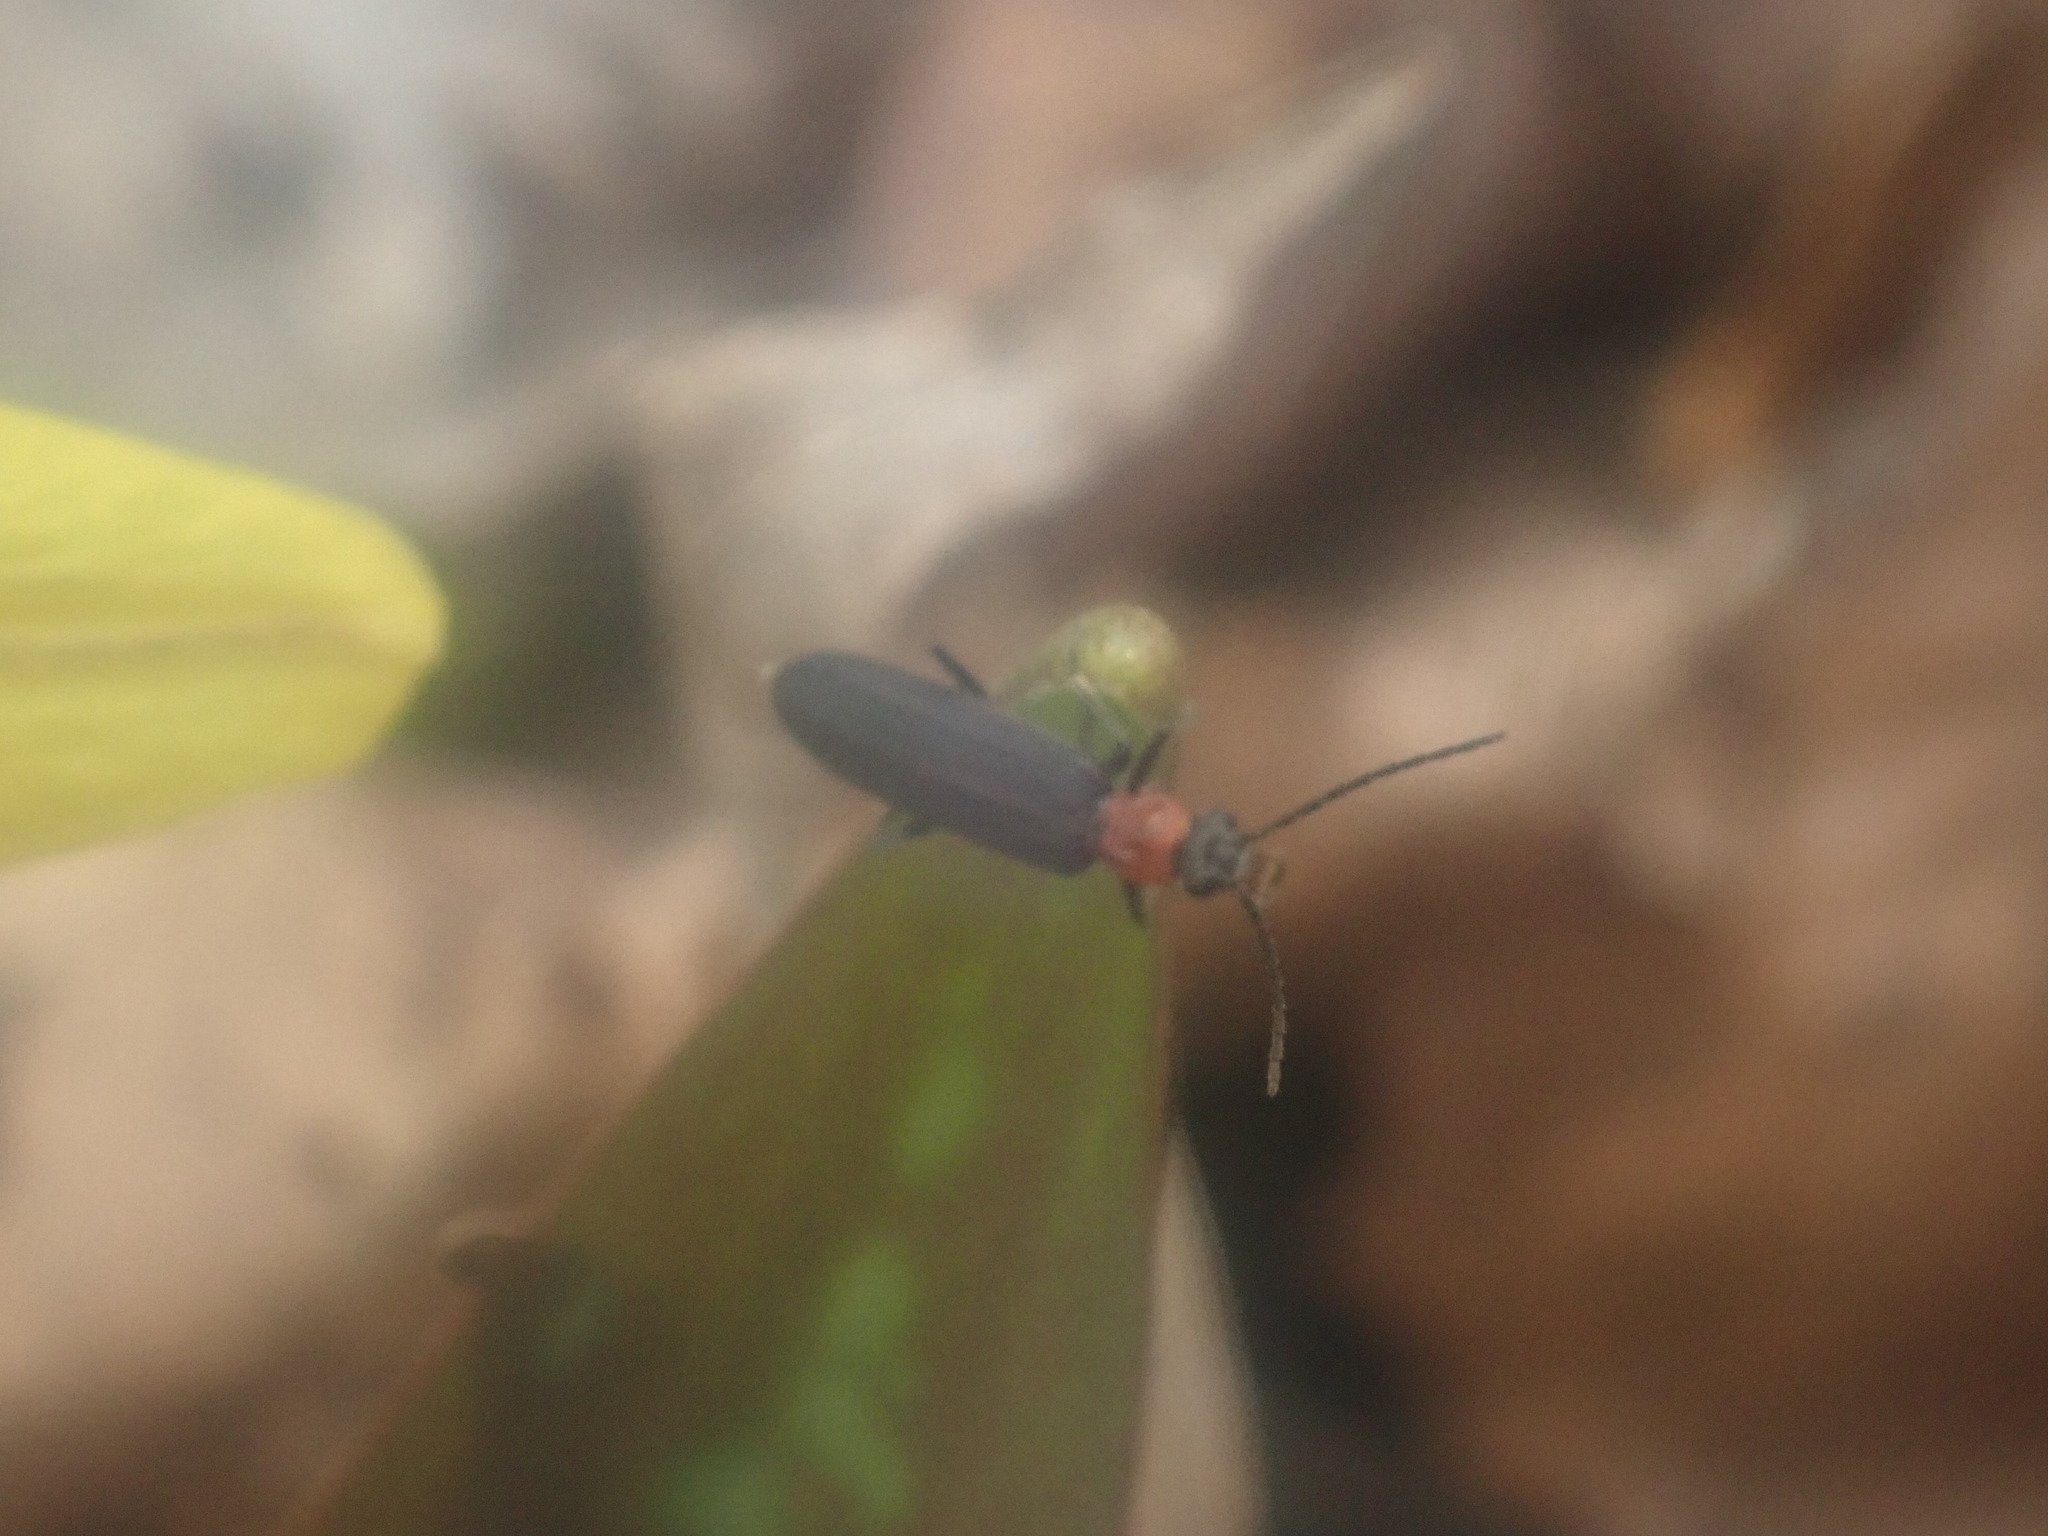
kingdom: Animalia
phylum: Arthropoda
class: Insecta
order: Coleoptera
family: Oedemeridae
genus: Ischnomera
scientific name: Ischnomera
